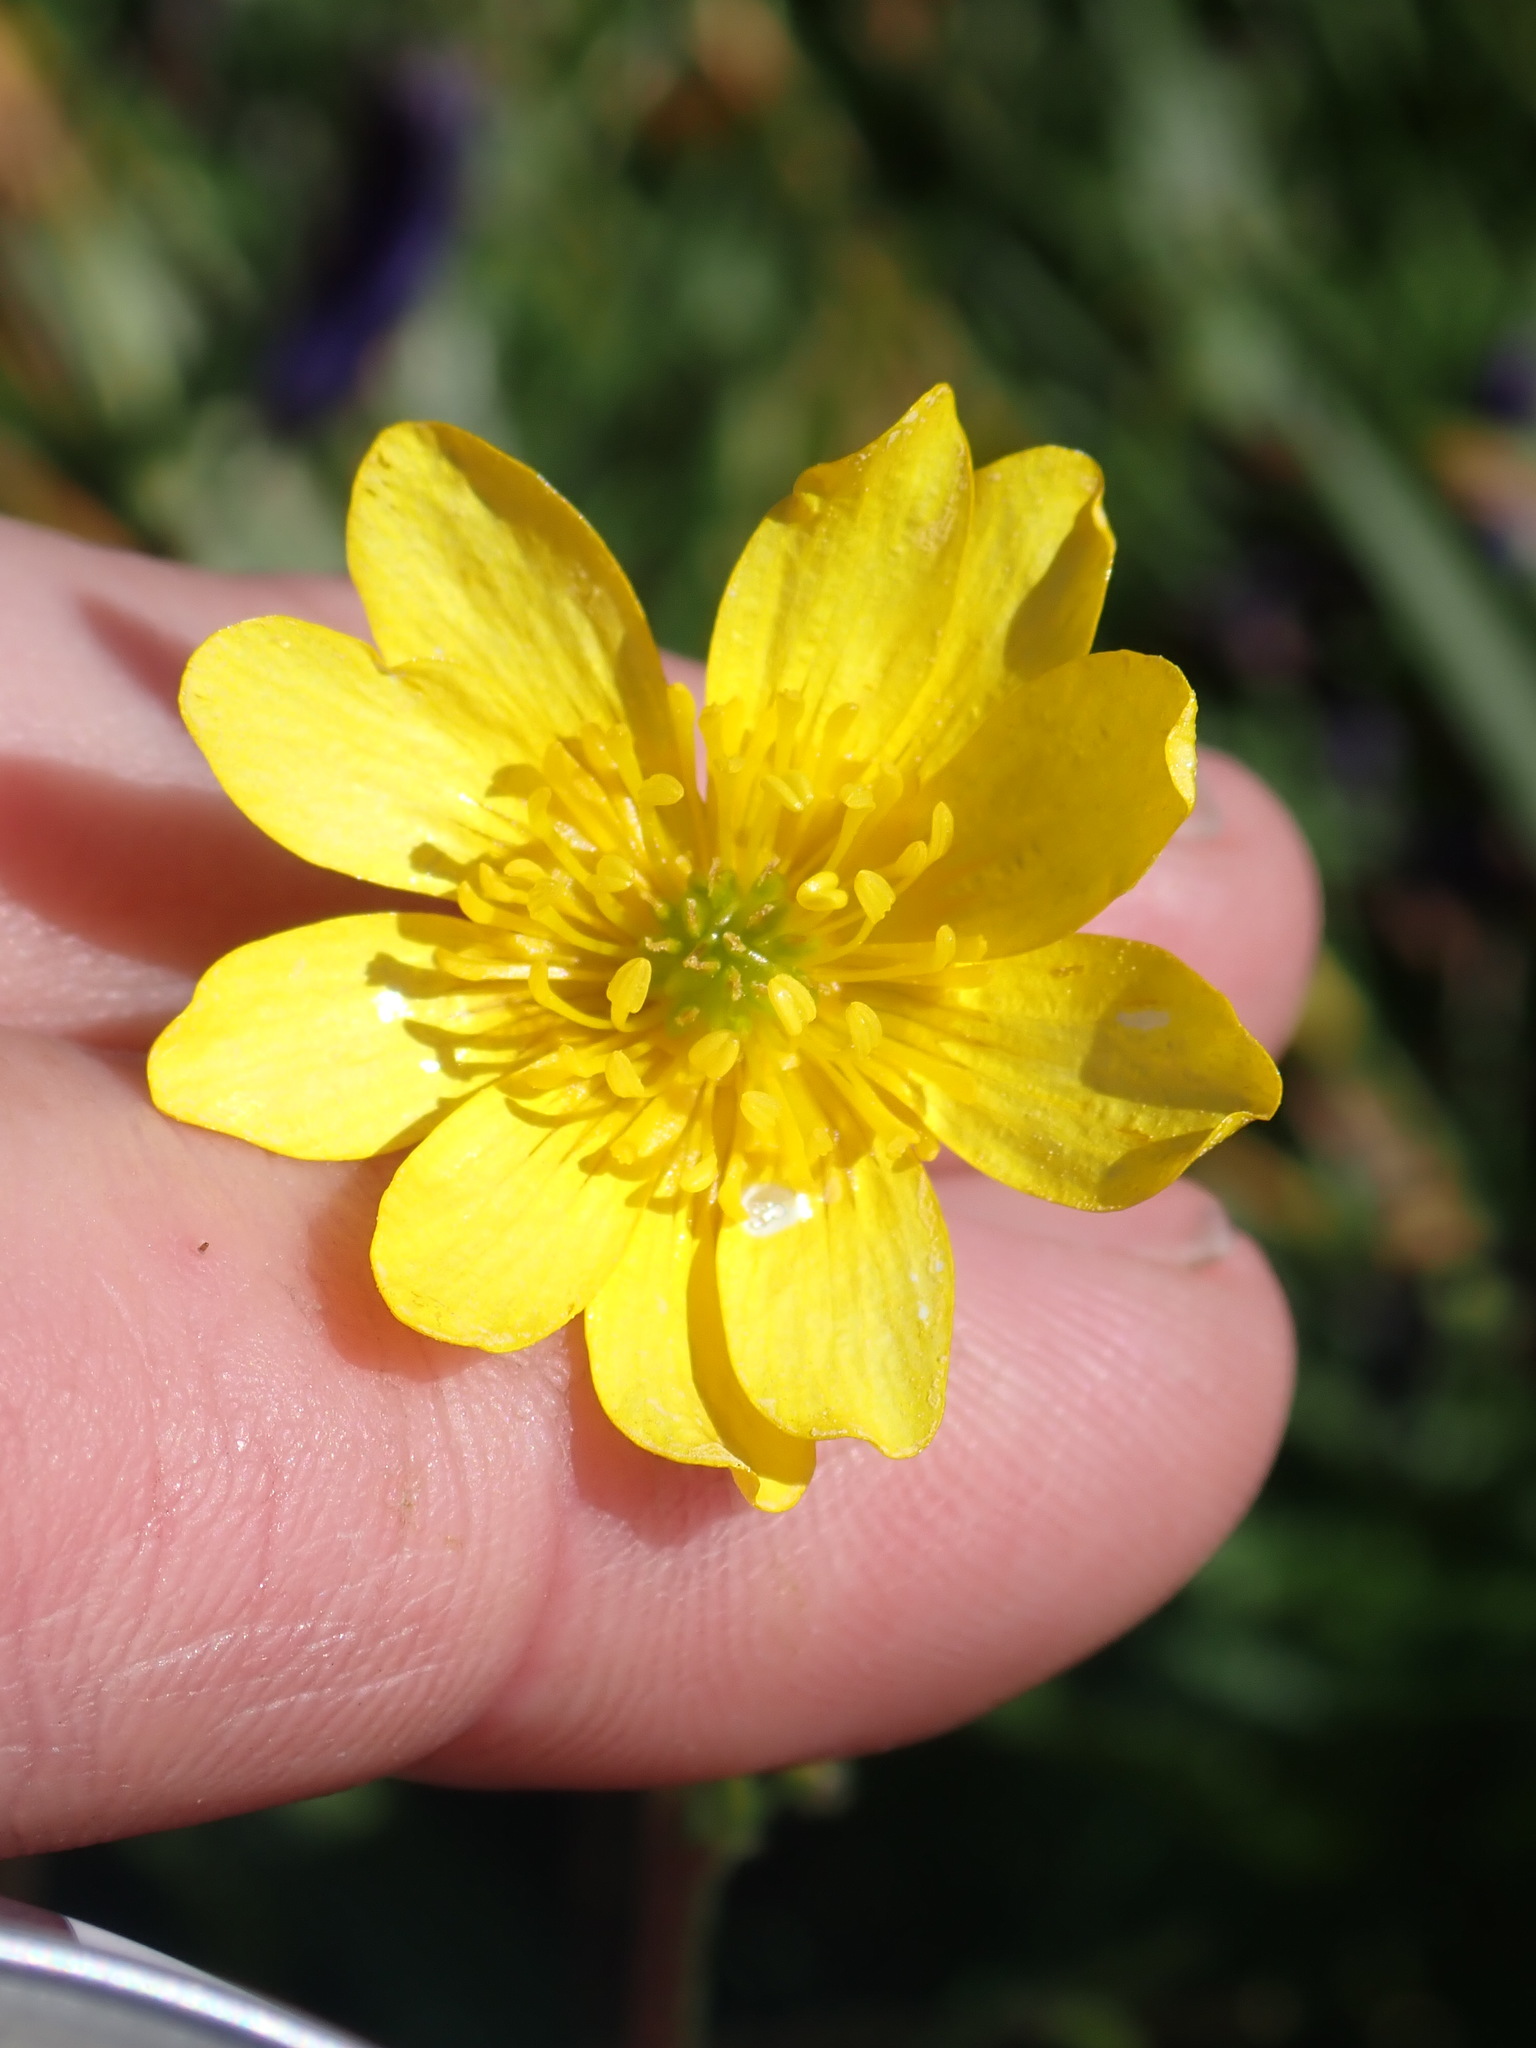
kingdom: Plantae
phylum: Tracheophyta
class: Magnoliopsida
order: Ranunculales
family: Ranunculaceae
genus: Ranunculus
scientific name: Ranunculus californicus
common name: California buttercup
